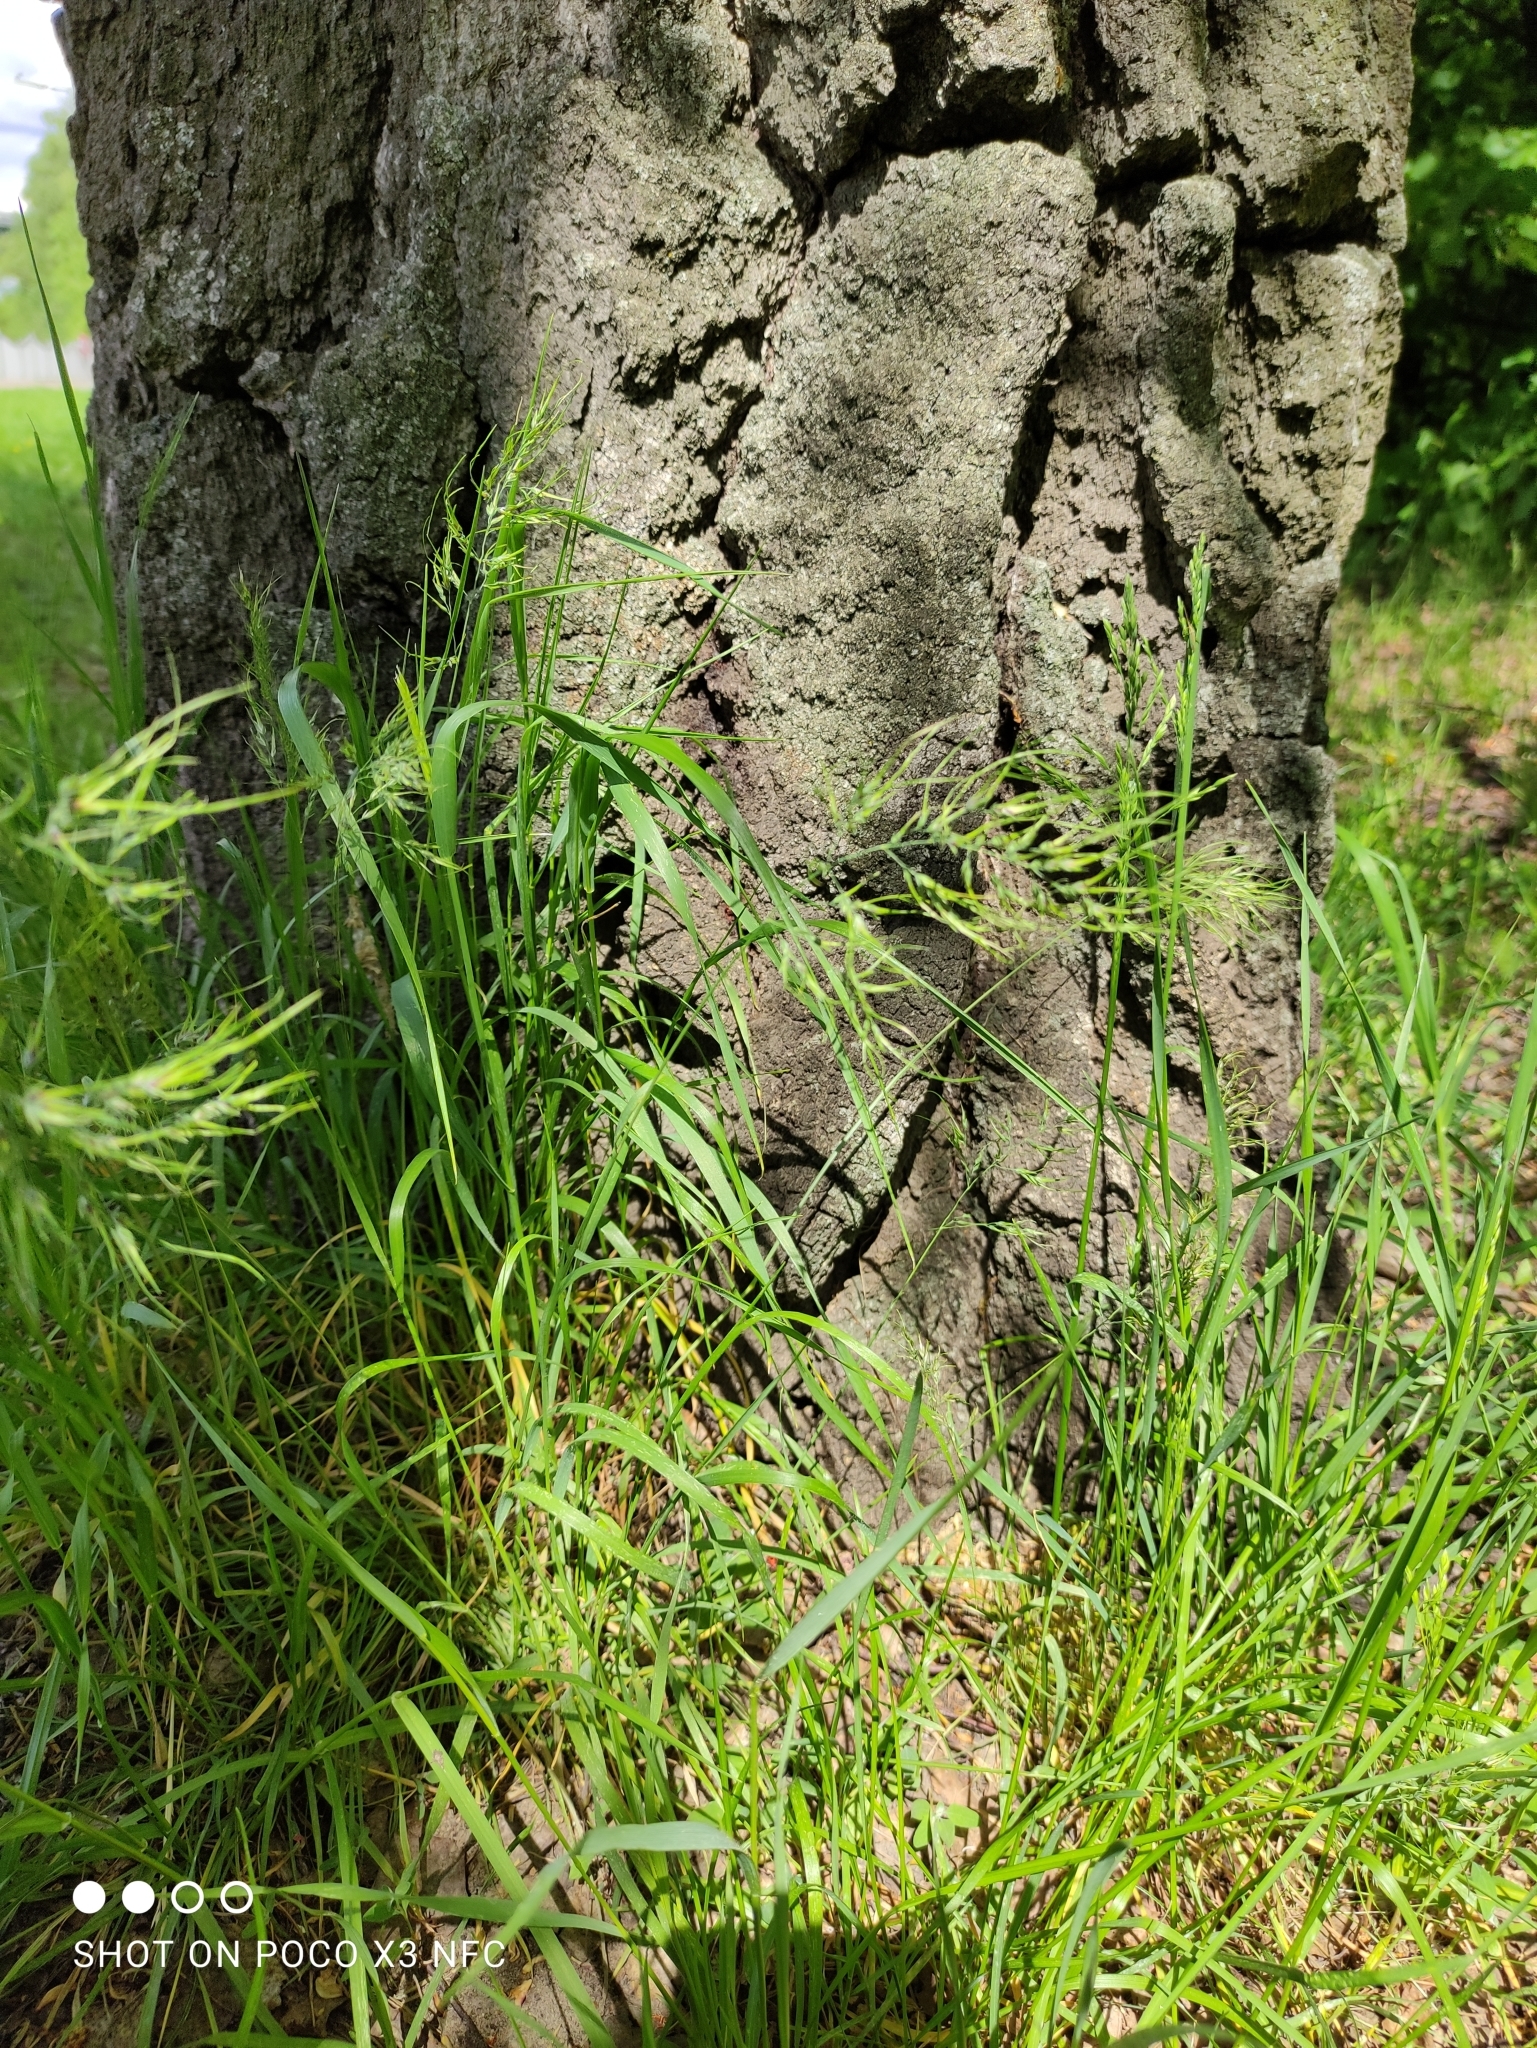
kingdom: Plantae
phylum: Tracheophyta
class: Liliopsida
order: Poales
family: Poaceae
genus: Poa
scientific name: Poa bulbosa
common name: Bulbous bluegrass
